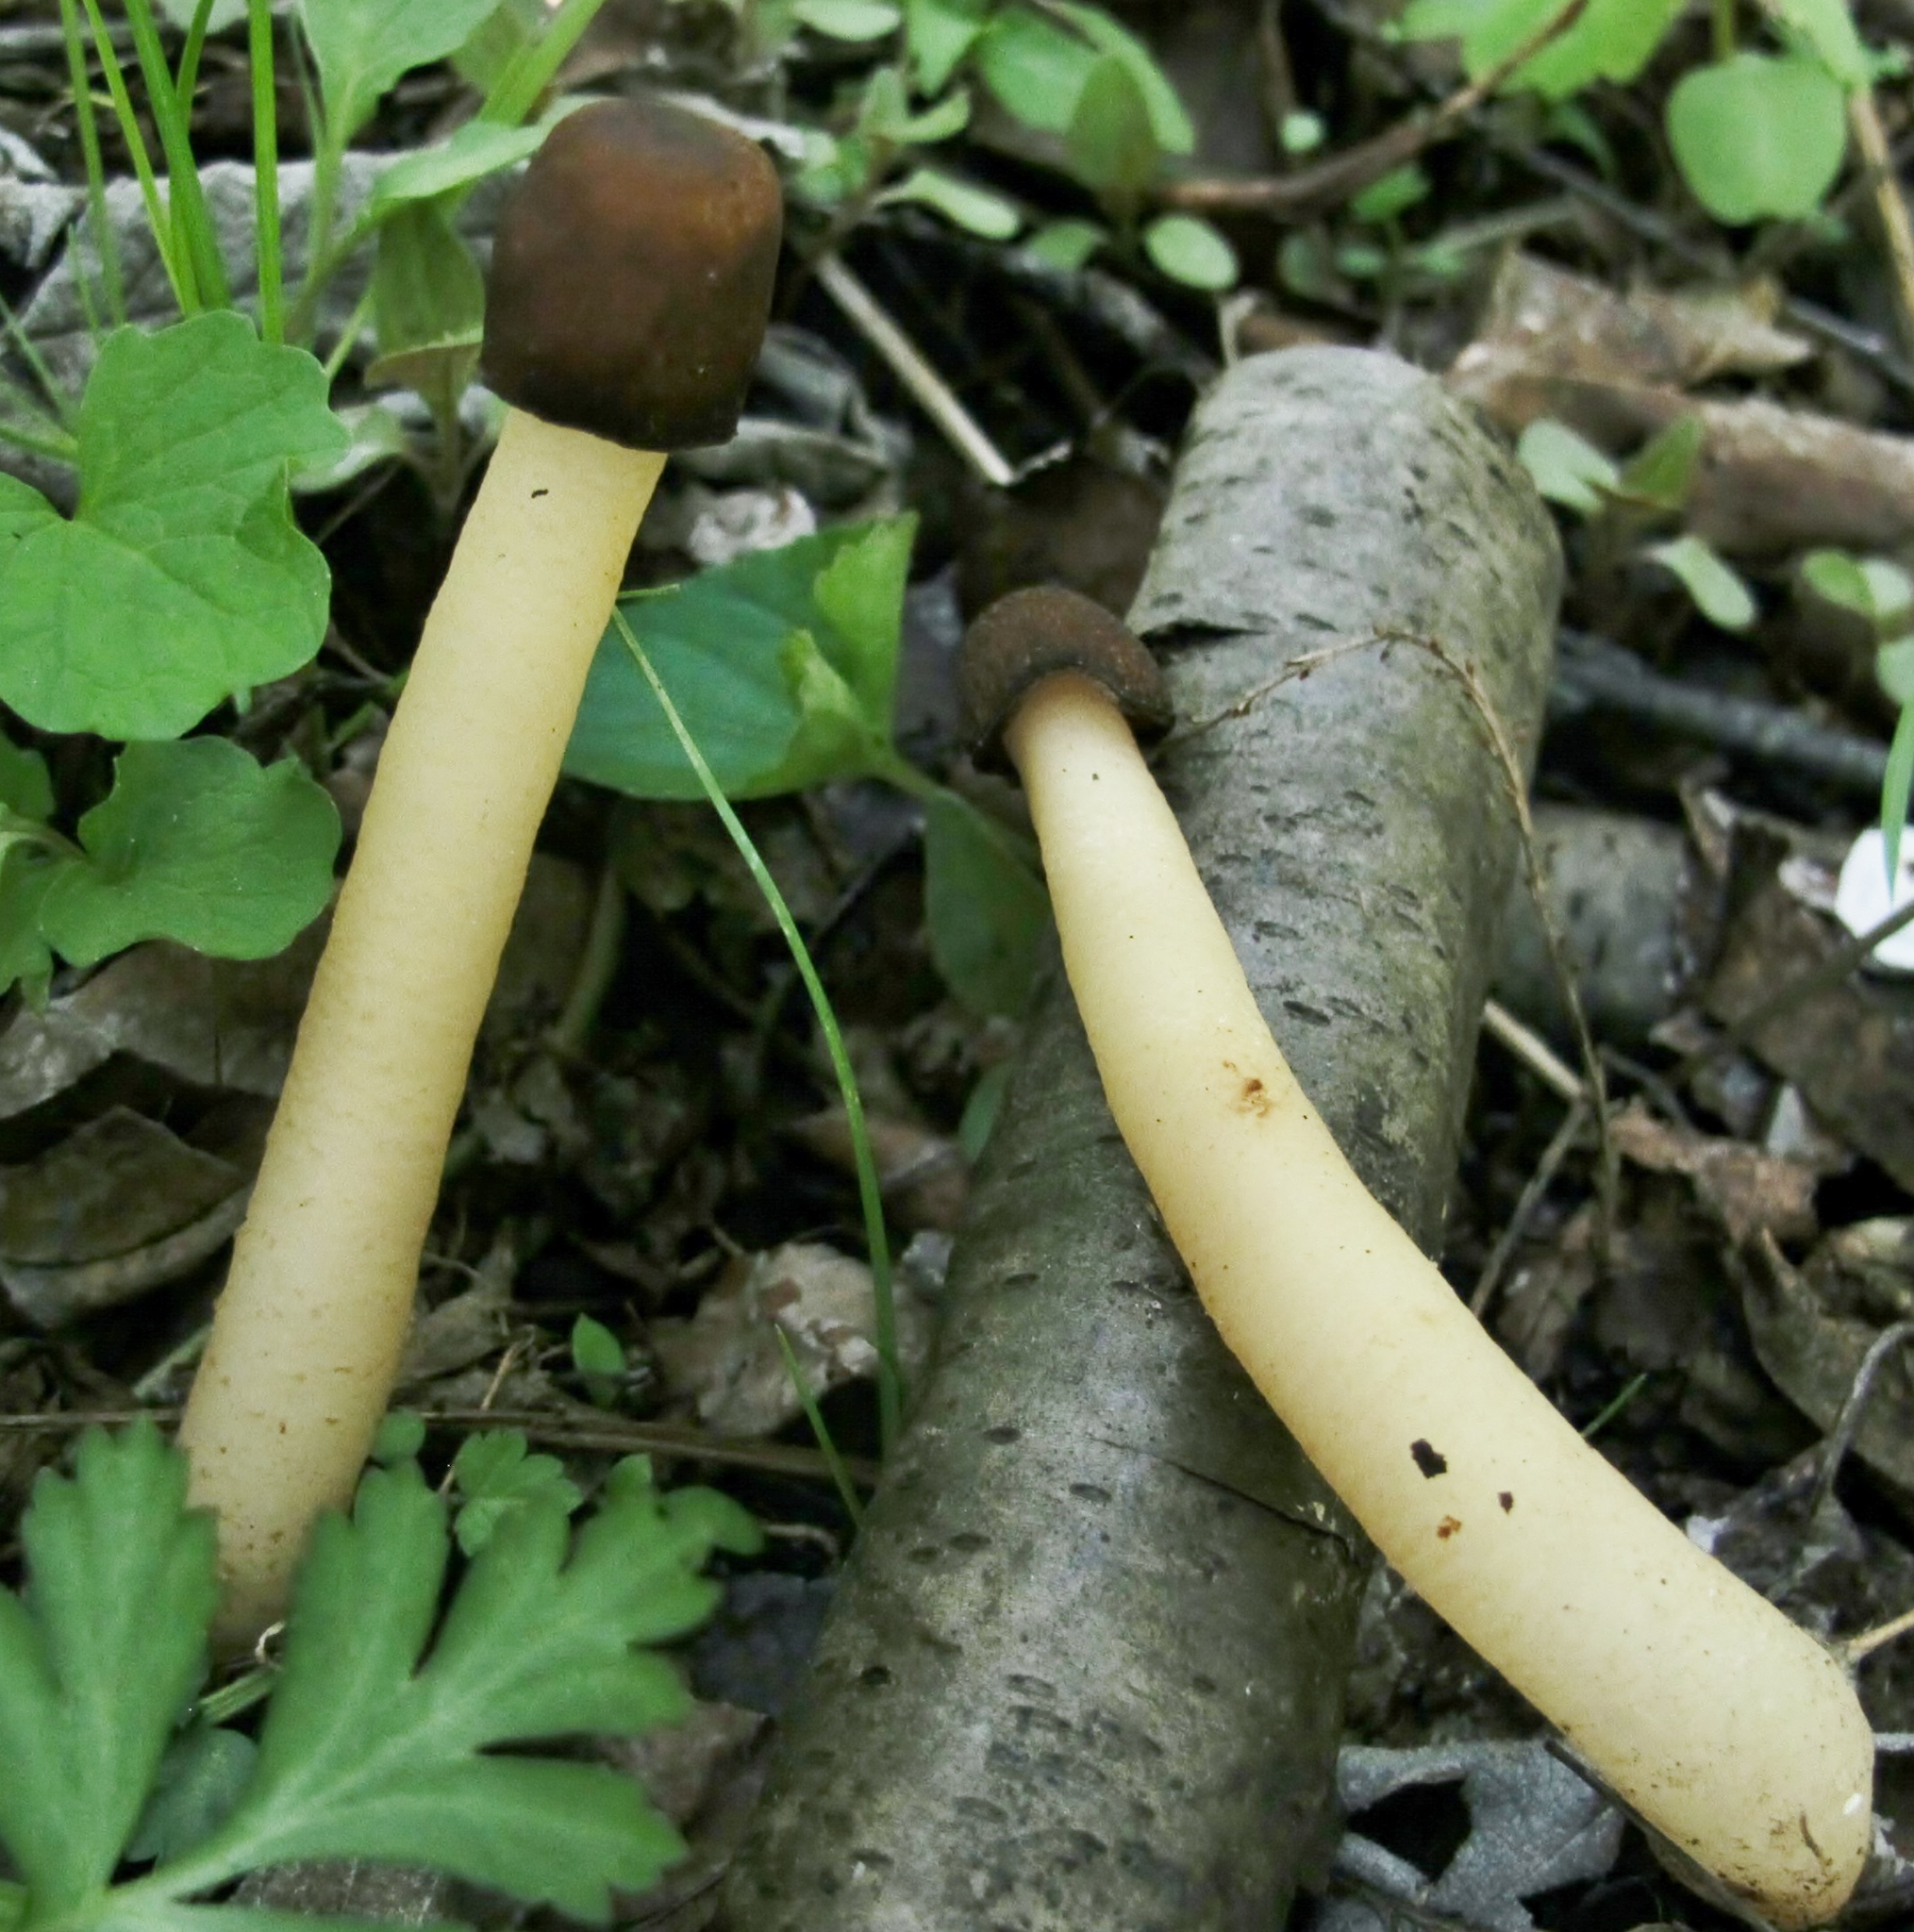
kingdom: Fungi
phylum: Ascomycota
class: Pezizomycetes
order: Pezizales
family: Morchellaceae
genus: Verpa
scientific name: Verpa conica
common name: Thimble morel
